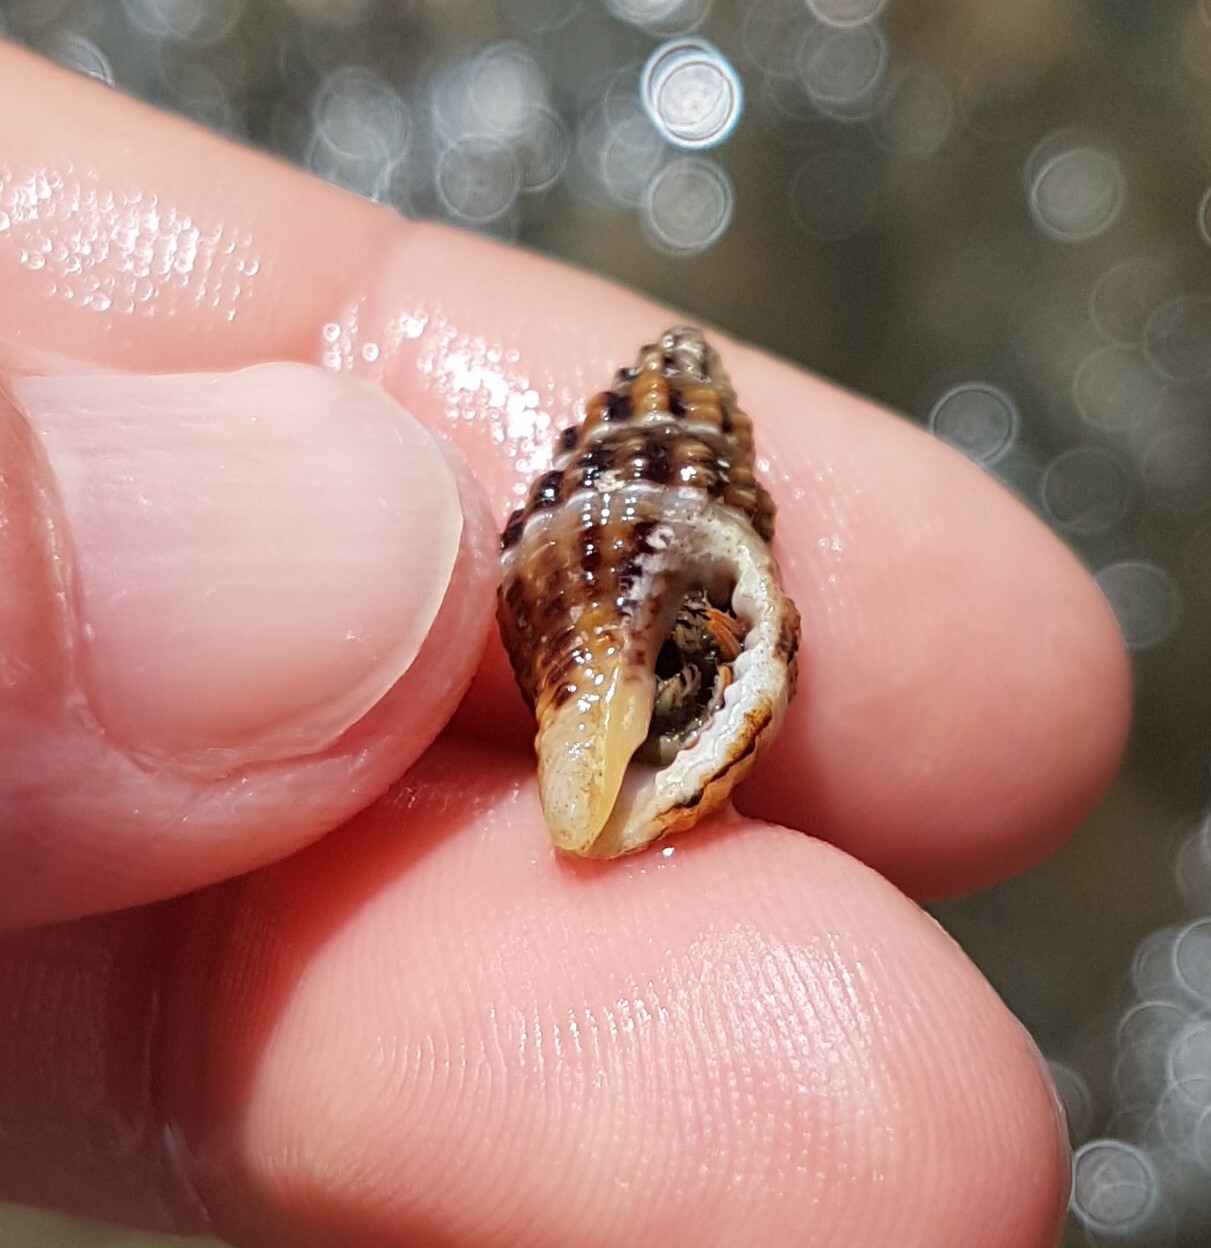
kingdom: Animalia
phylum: Mollusca
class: Gastropoda
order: Neogastropoda
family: Pisaniidae
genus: Aplus
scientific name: Aplus dorbignyi
